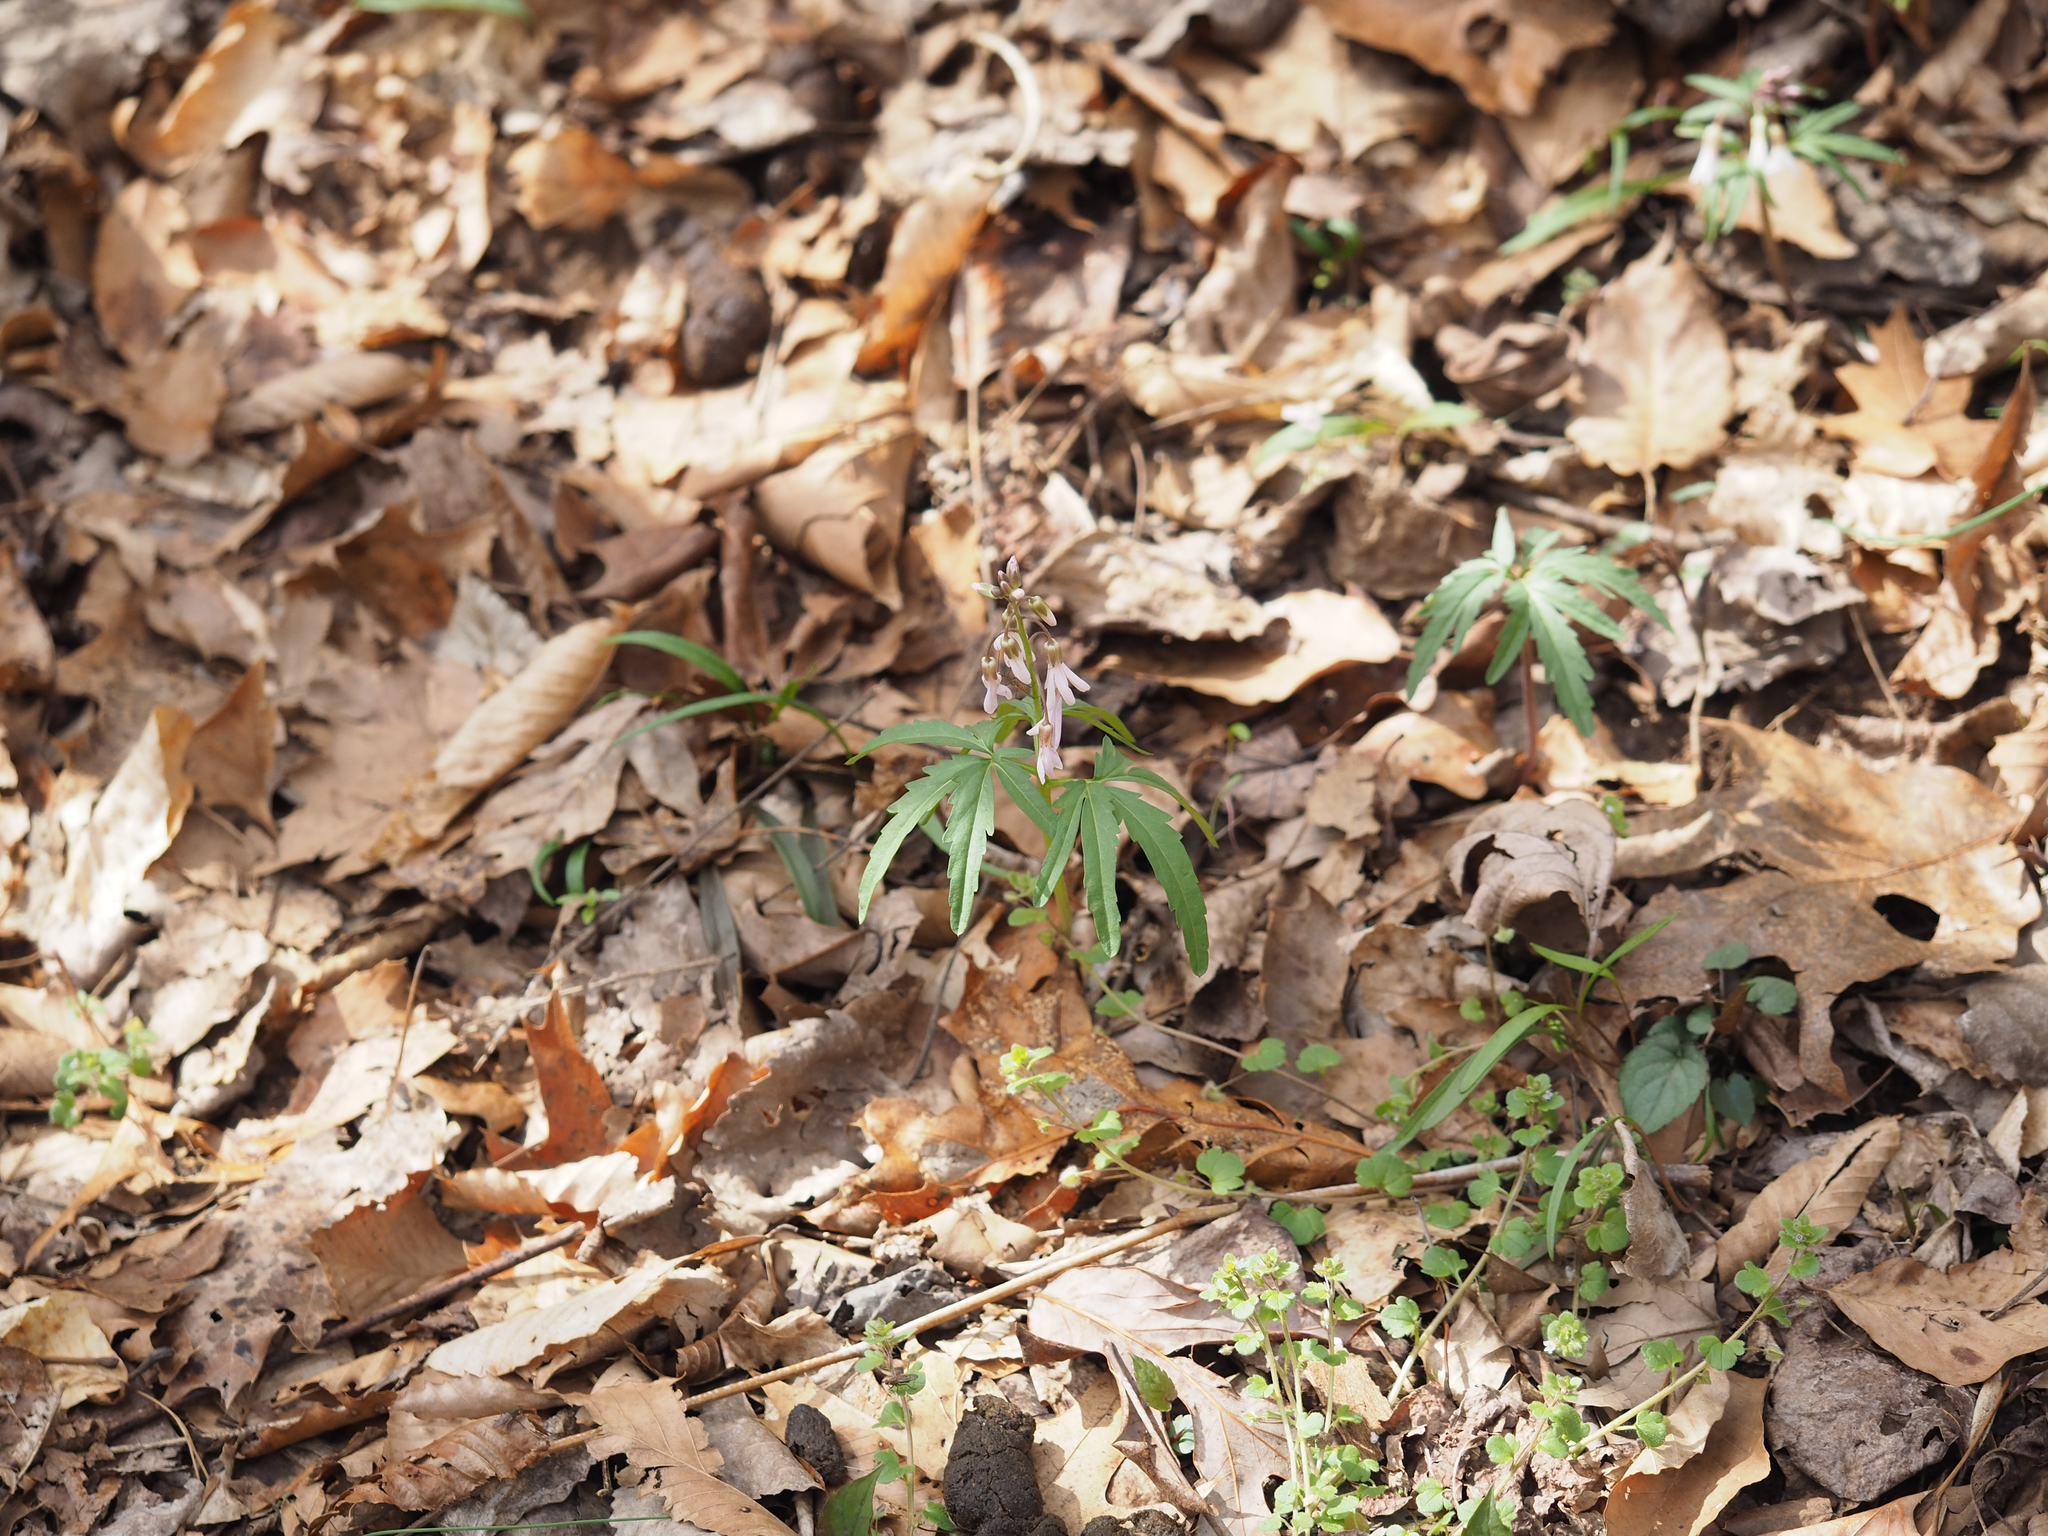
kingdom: Plantae
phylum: Tracheophyta
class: Magnoliopsida
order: Brassicales
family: Brassicaceae
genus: Cardamine
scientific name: Cardamine concatenata
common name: Cut-leaf toothcup
